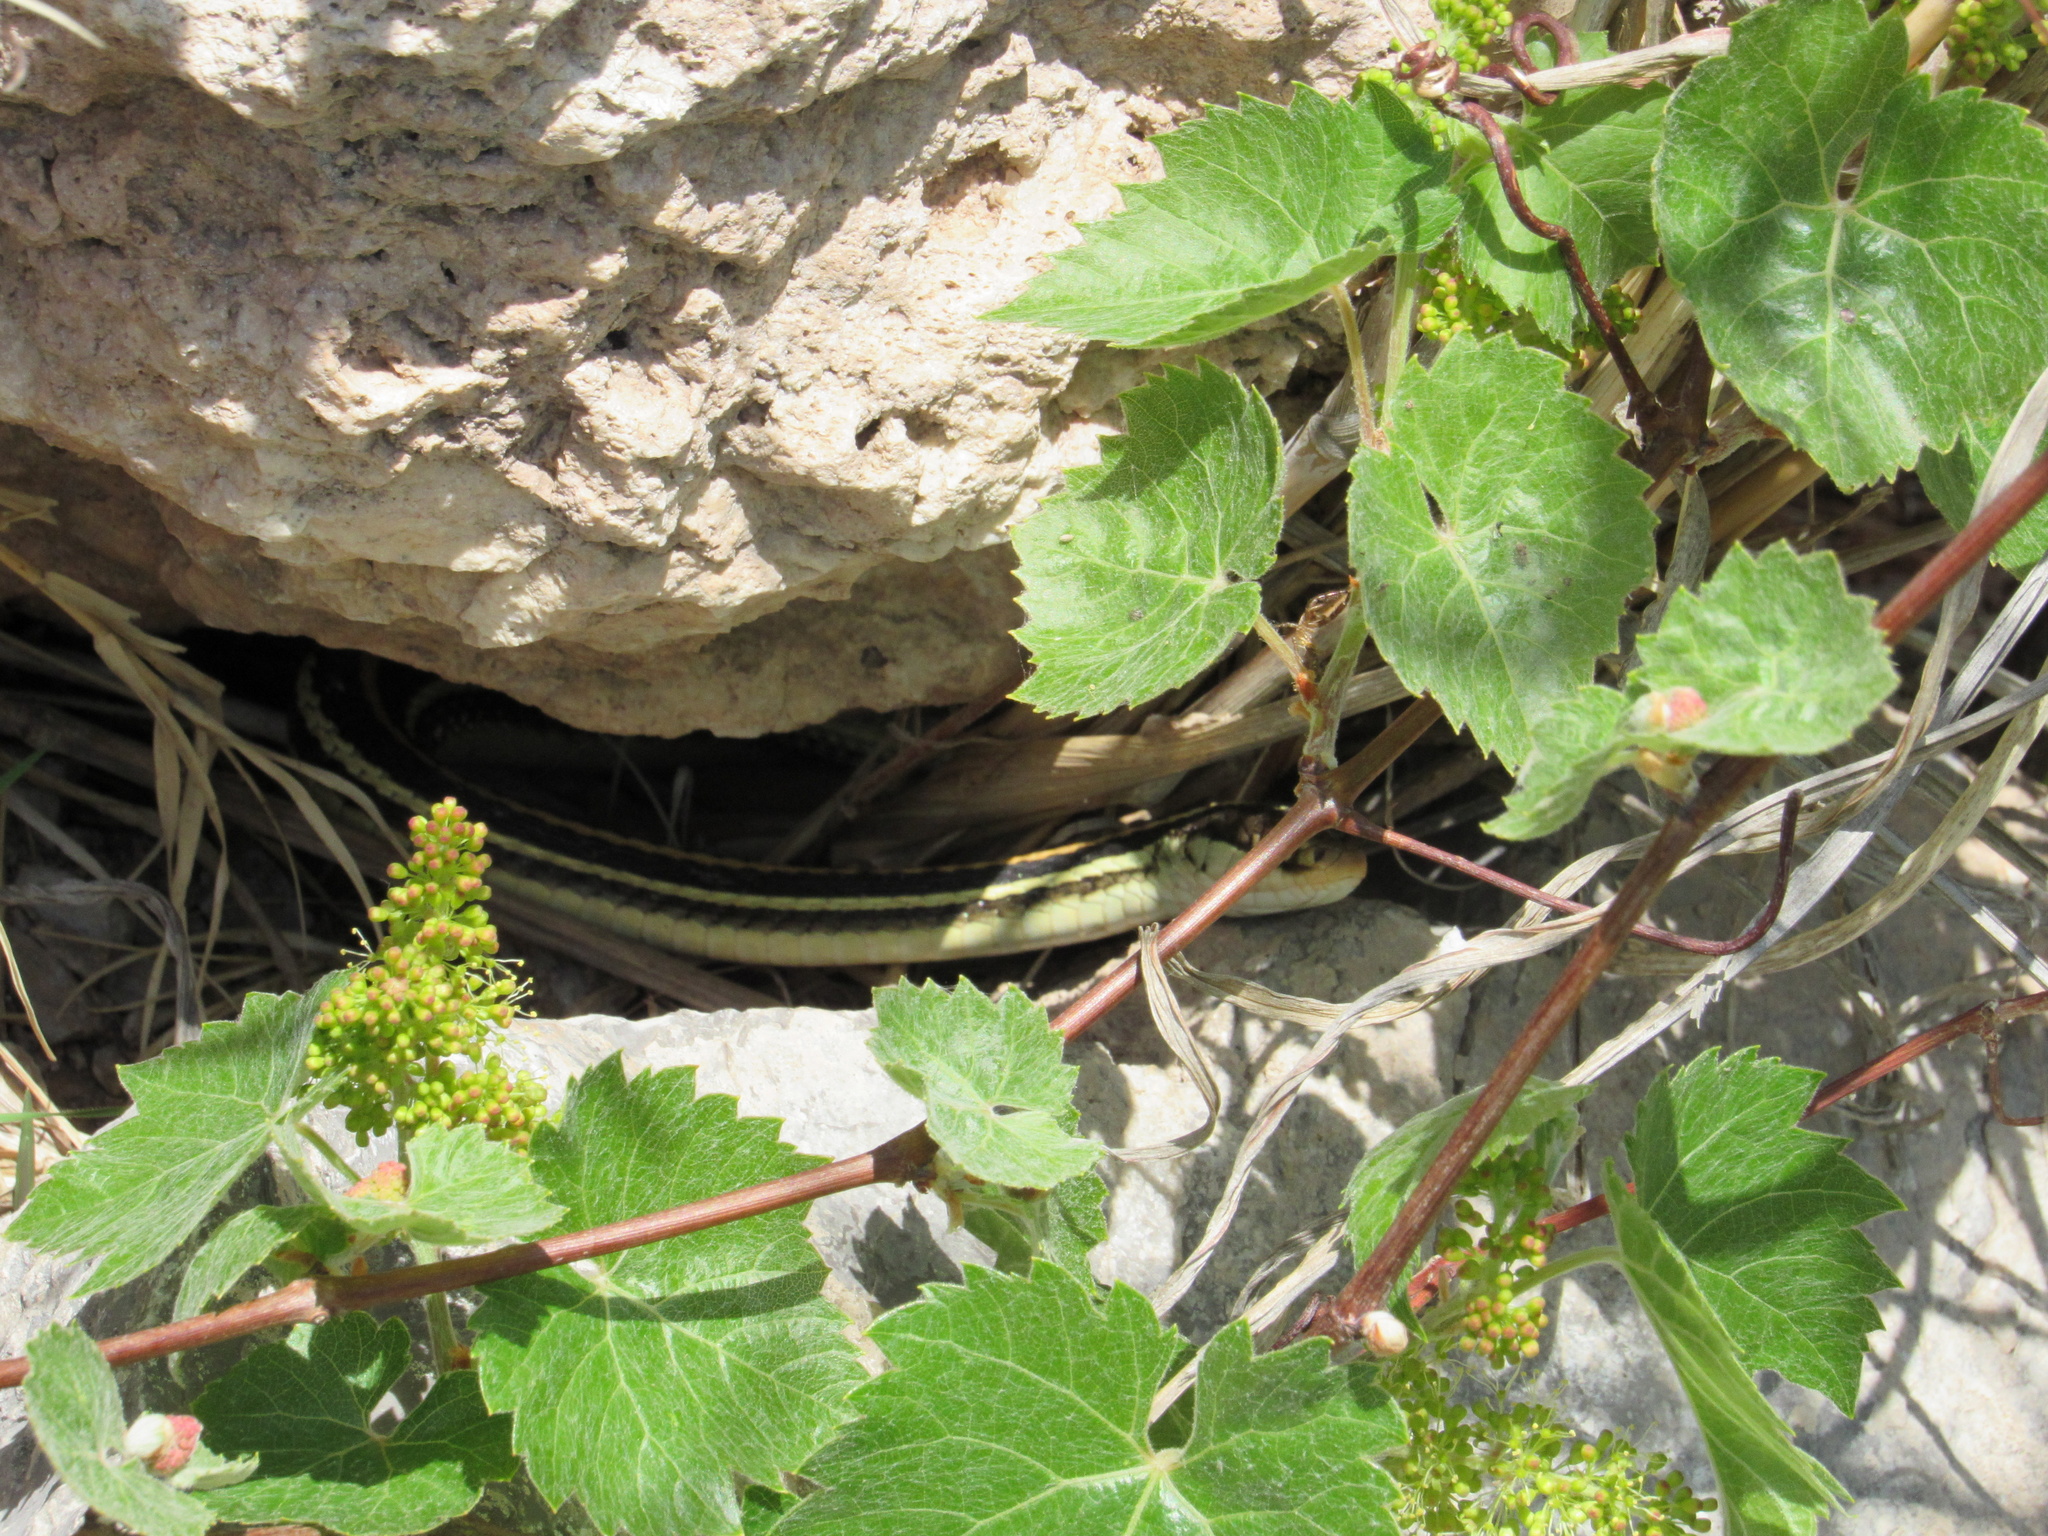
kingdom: Animalia
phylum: Chordata
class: Squamata
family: Colubridae
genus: Thamnophis
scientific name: Thamnophis proximus
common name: Western ribbon snake
